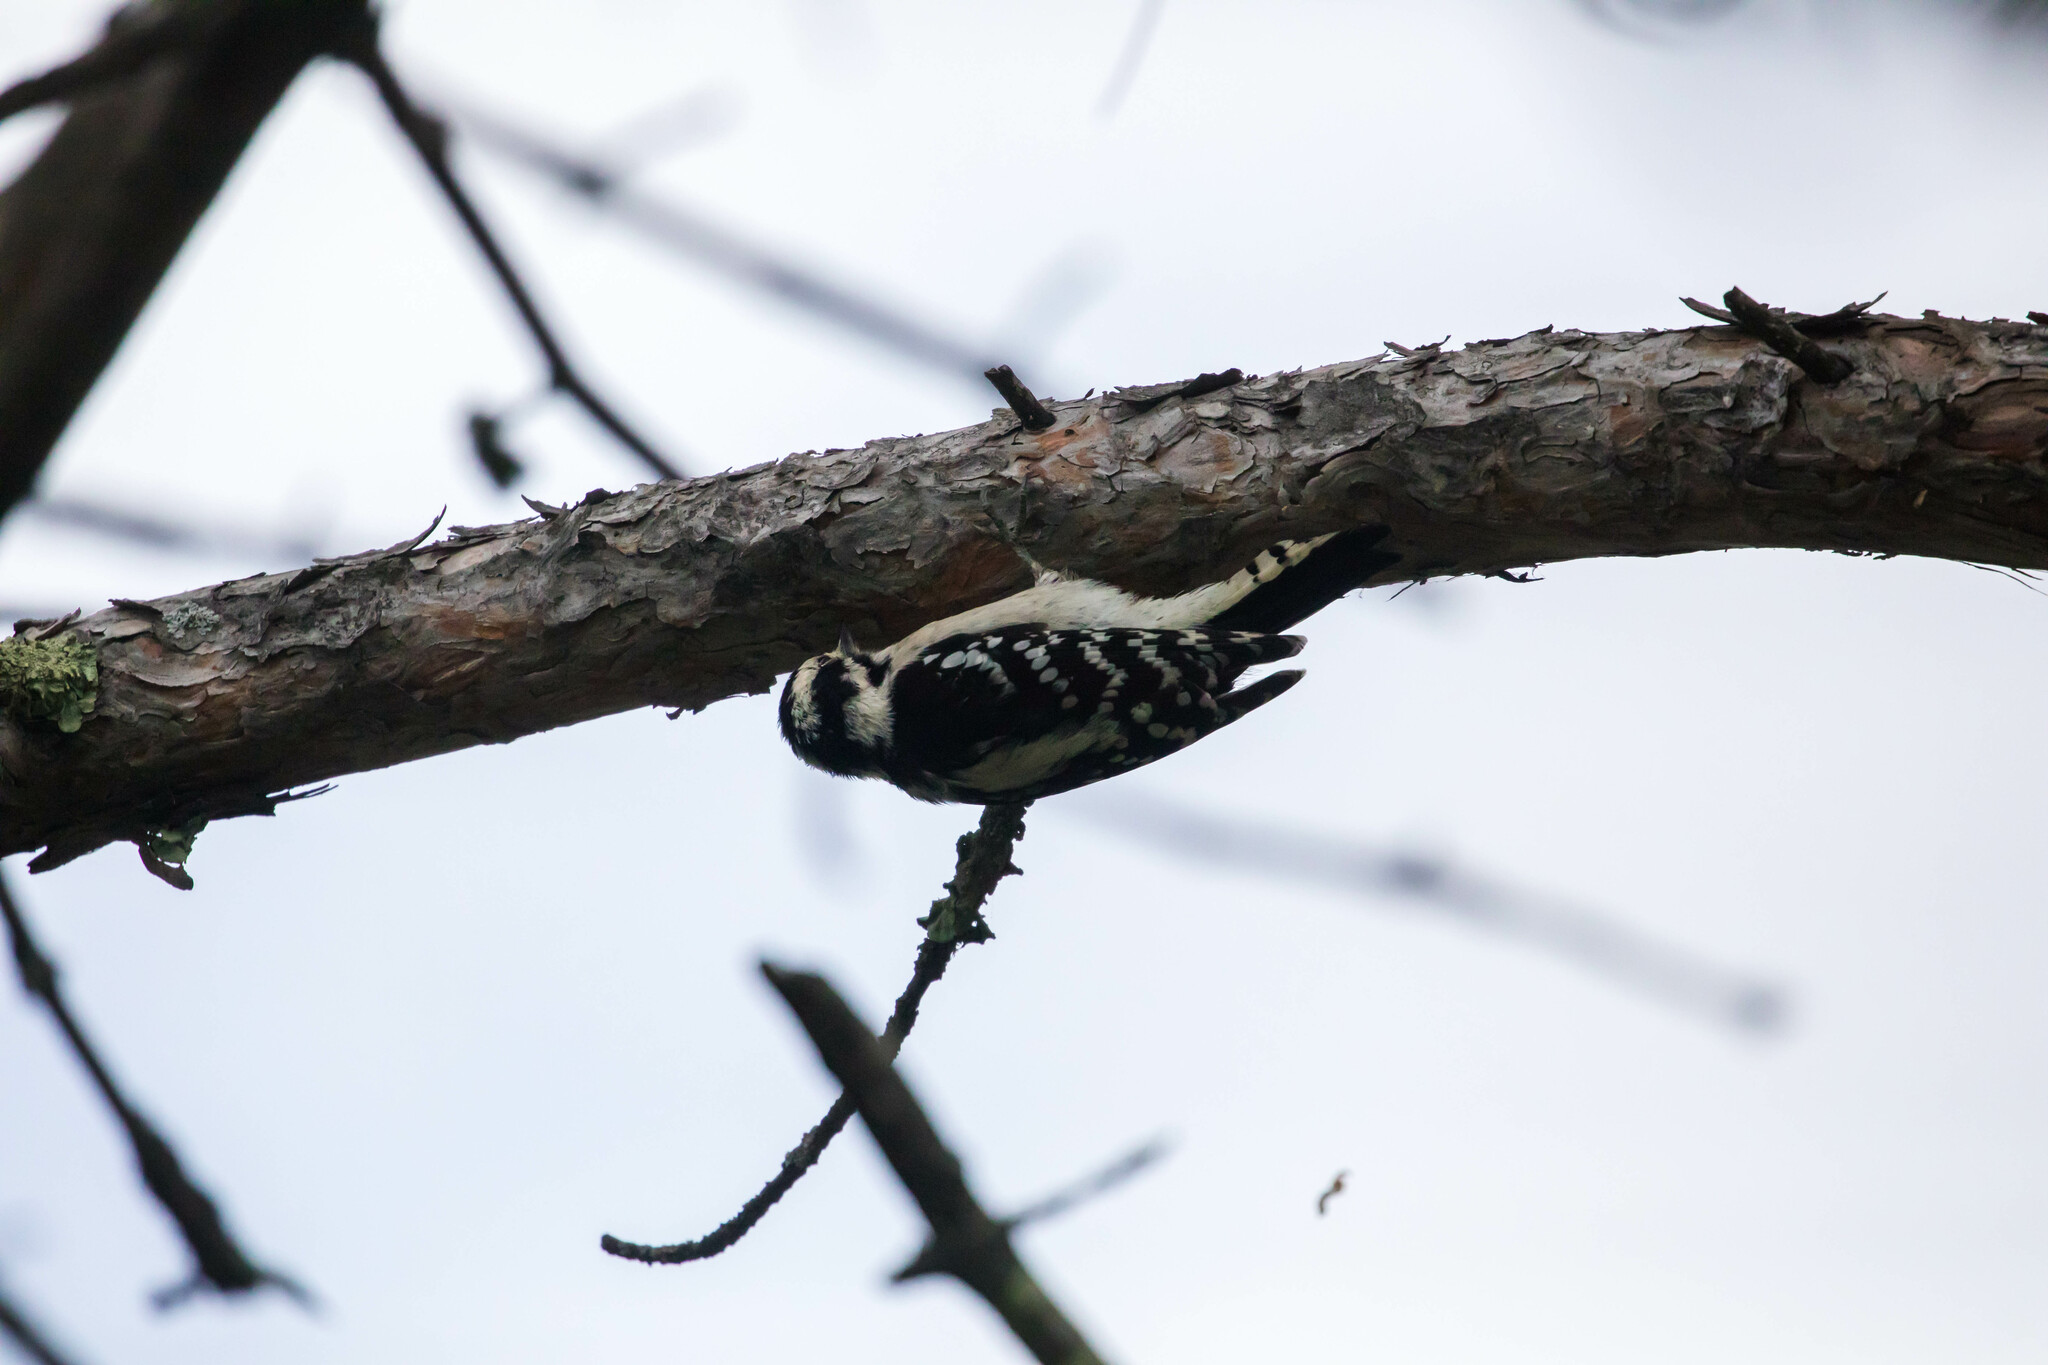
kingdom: Animalia
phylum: Chordata
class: Aves
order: Piciformes
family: Picidae
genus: Dryobates
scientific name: Dryobates pubescens
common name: Downy woodpecker
